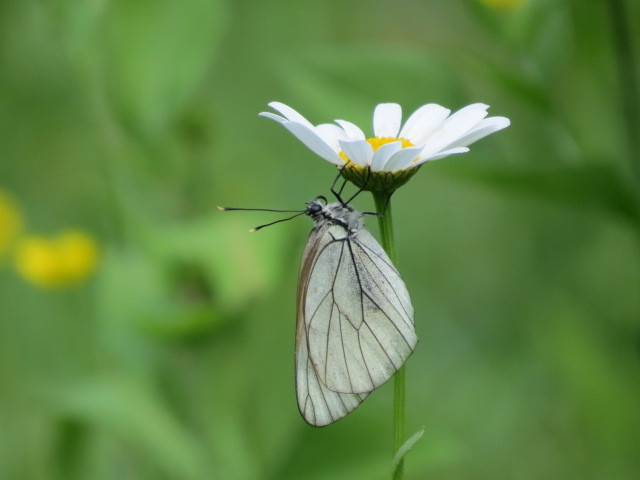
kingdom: Animalia
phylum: Arthropoda
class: Insecta
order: Lepidoptera
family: Pieridae
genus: Aporia
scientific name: Aporia crataegi
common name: Black-veined white
